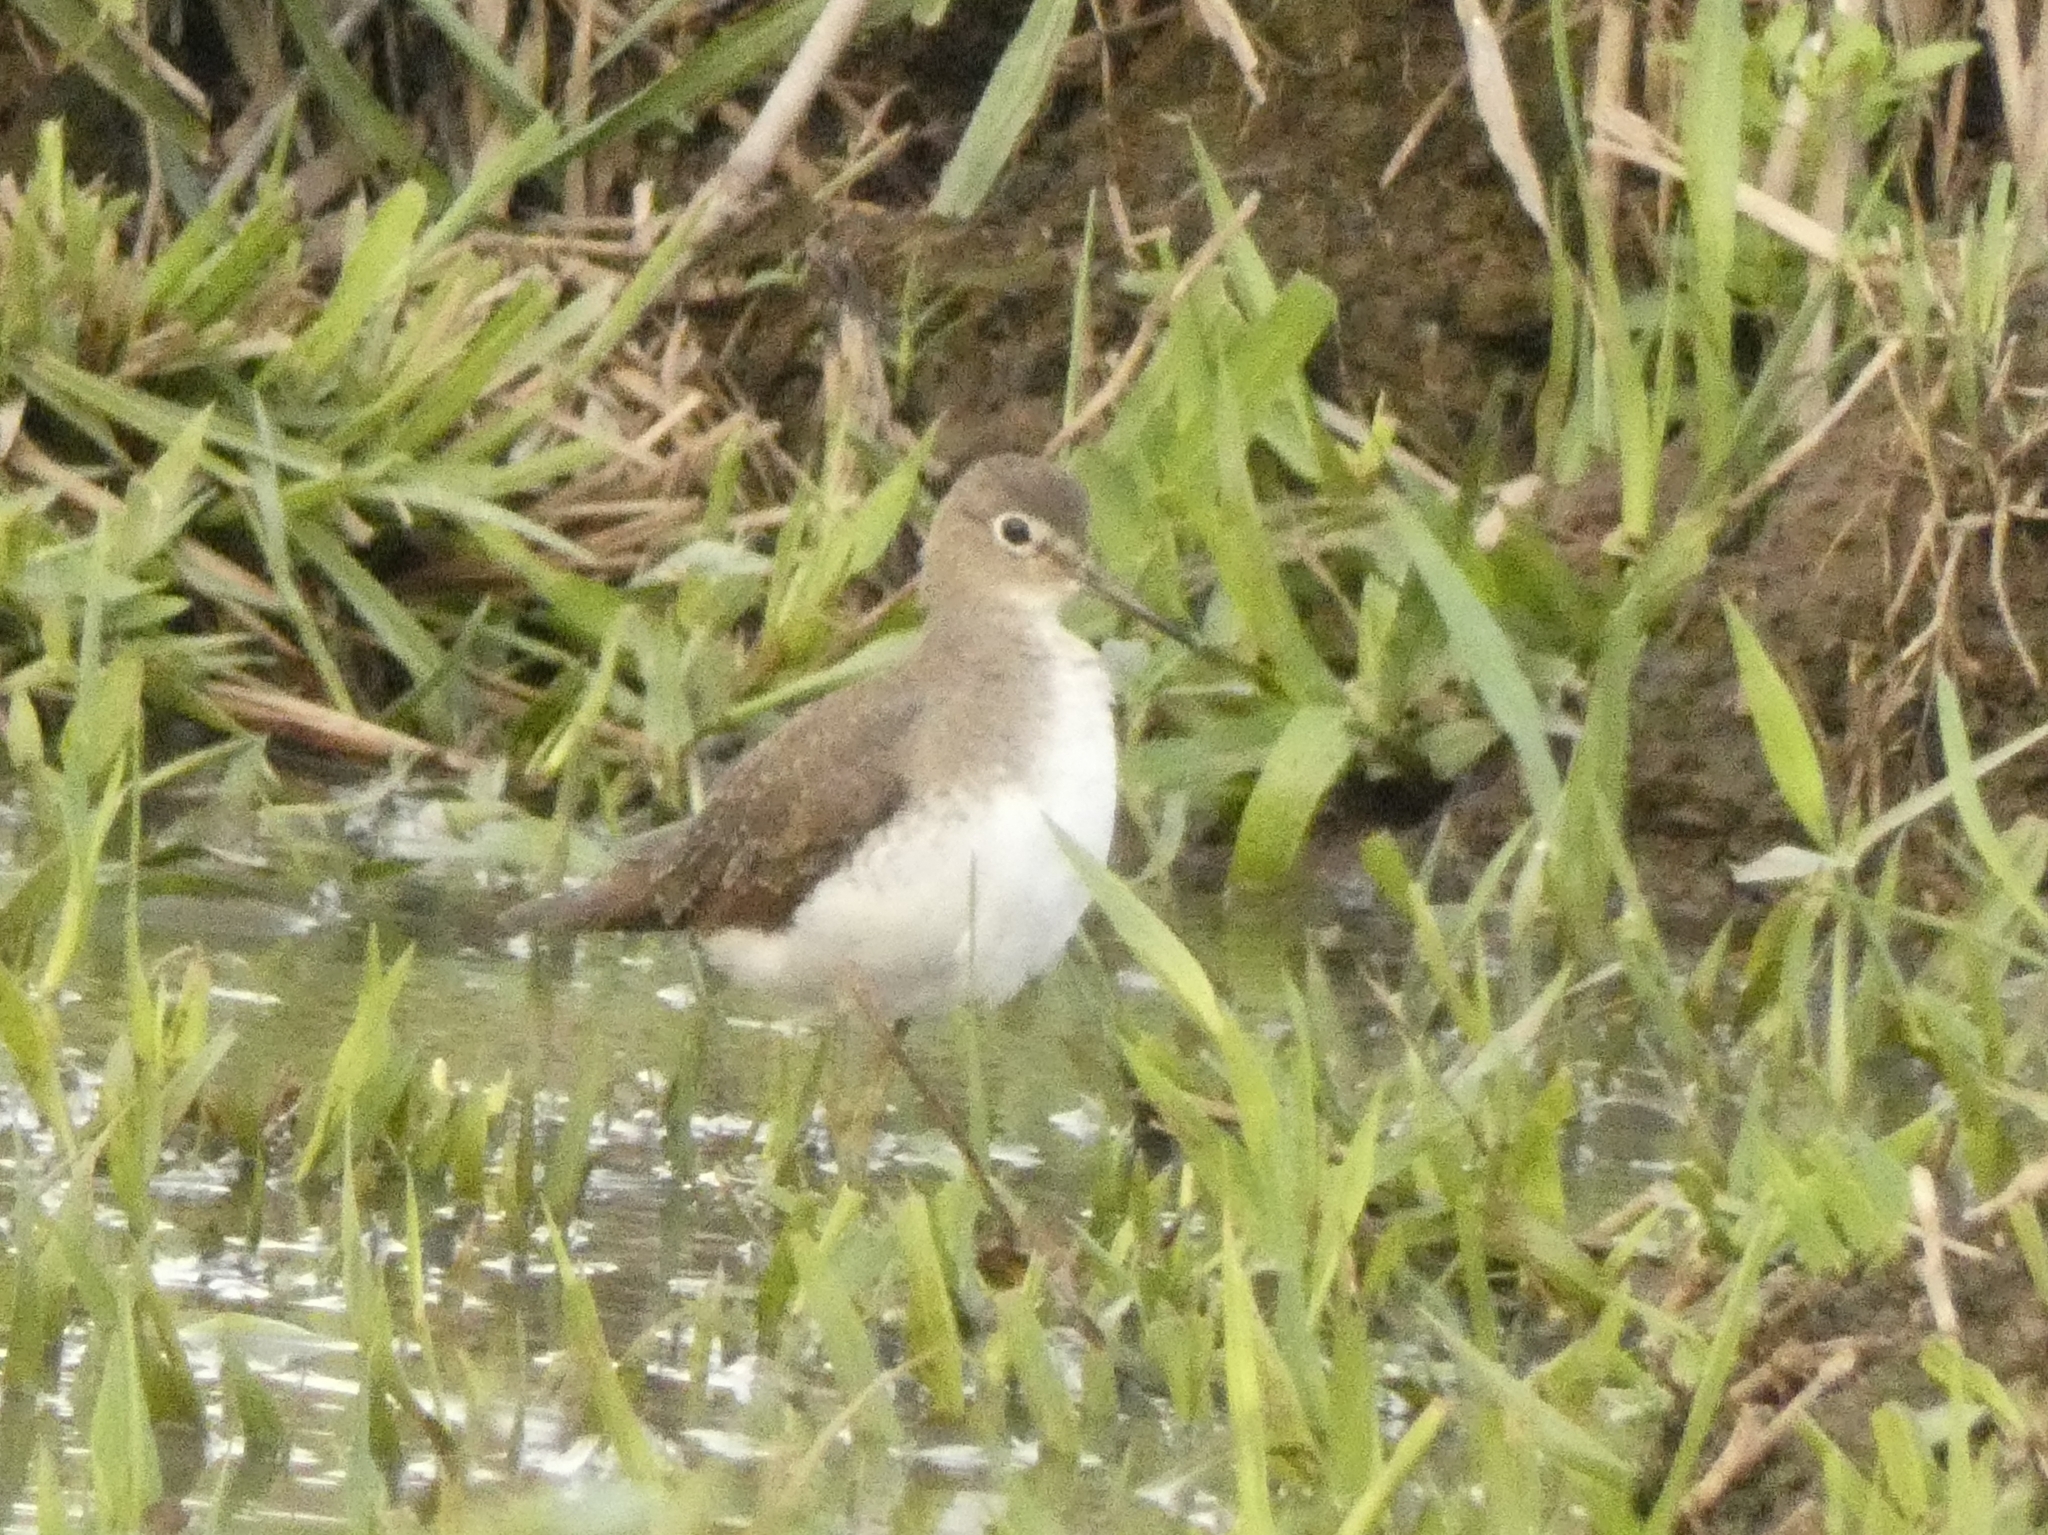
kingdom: Animalia
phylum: Chordata
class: Aves
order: Charadriiformes
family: Scolopacidae
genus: Tringa
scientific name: Tringa solitaria
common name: Solitary sandpiper
